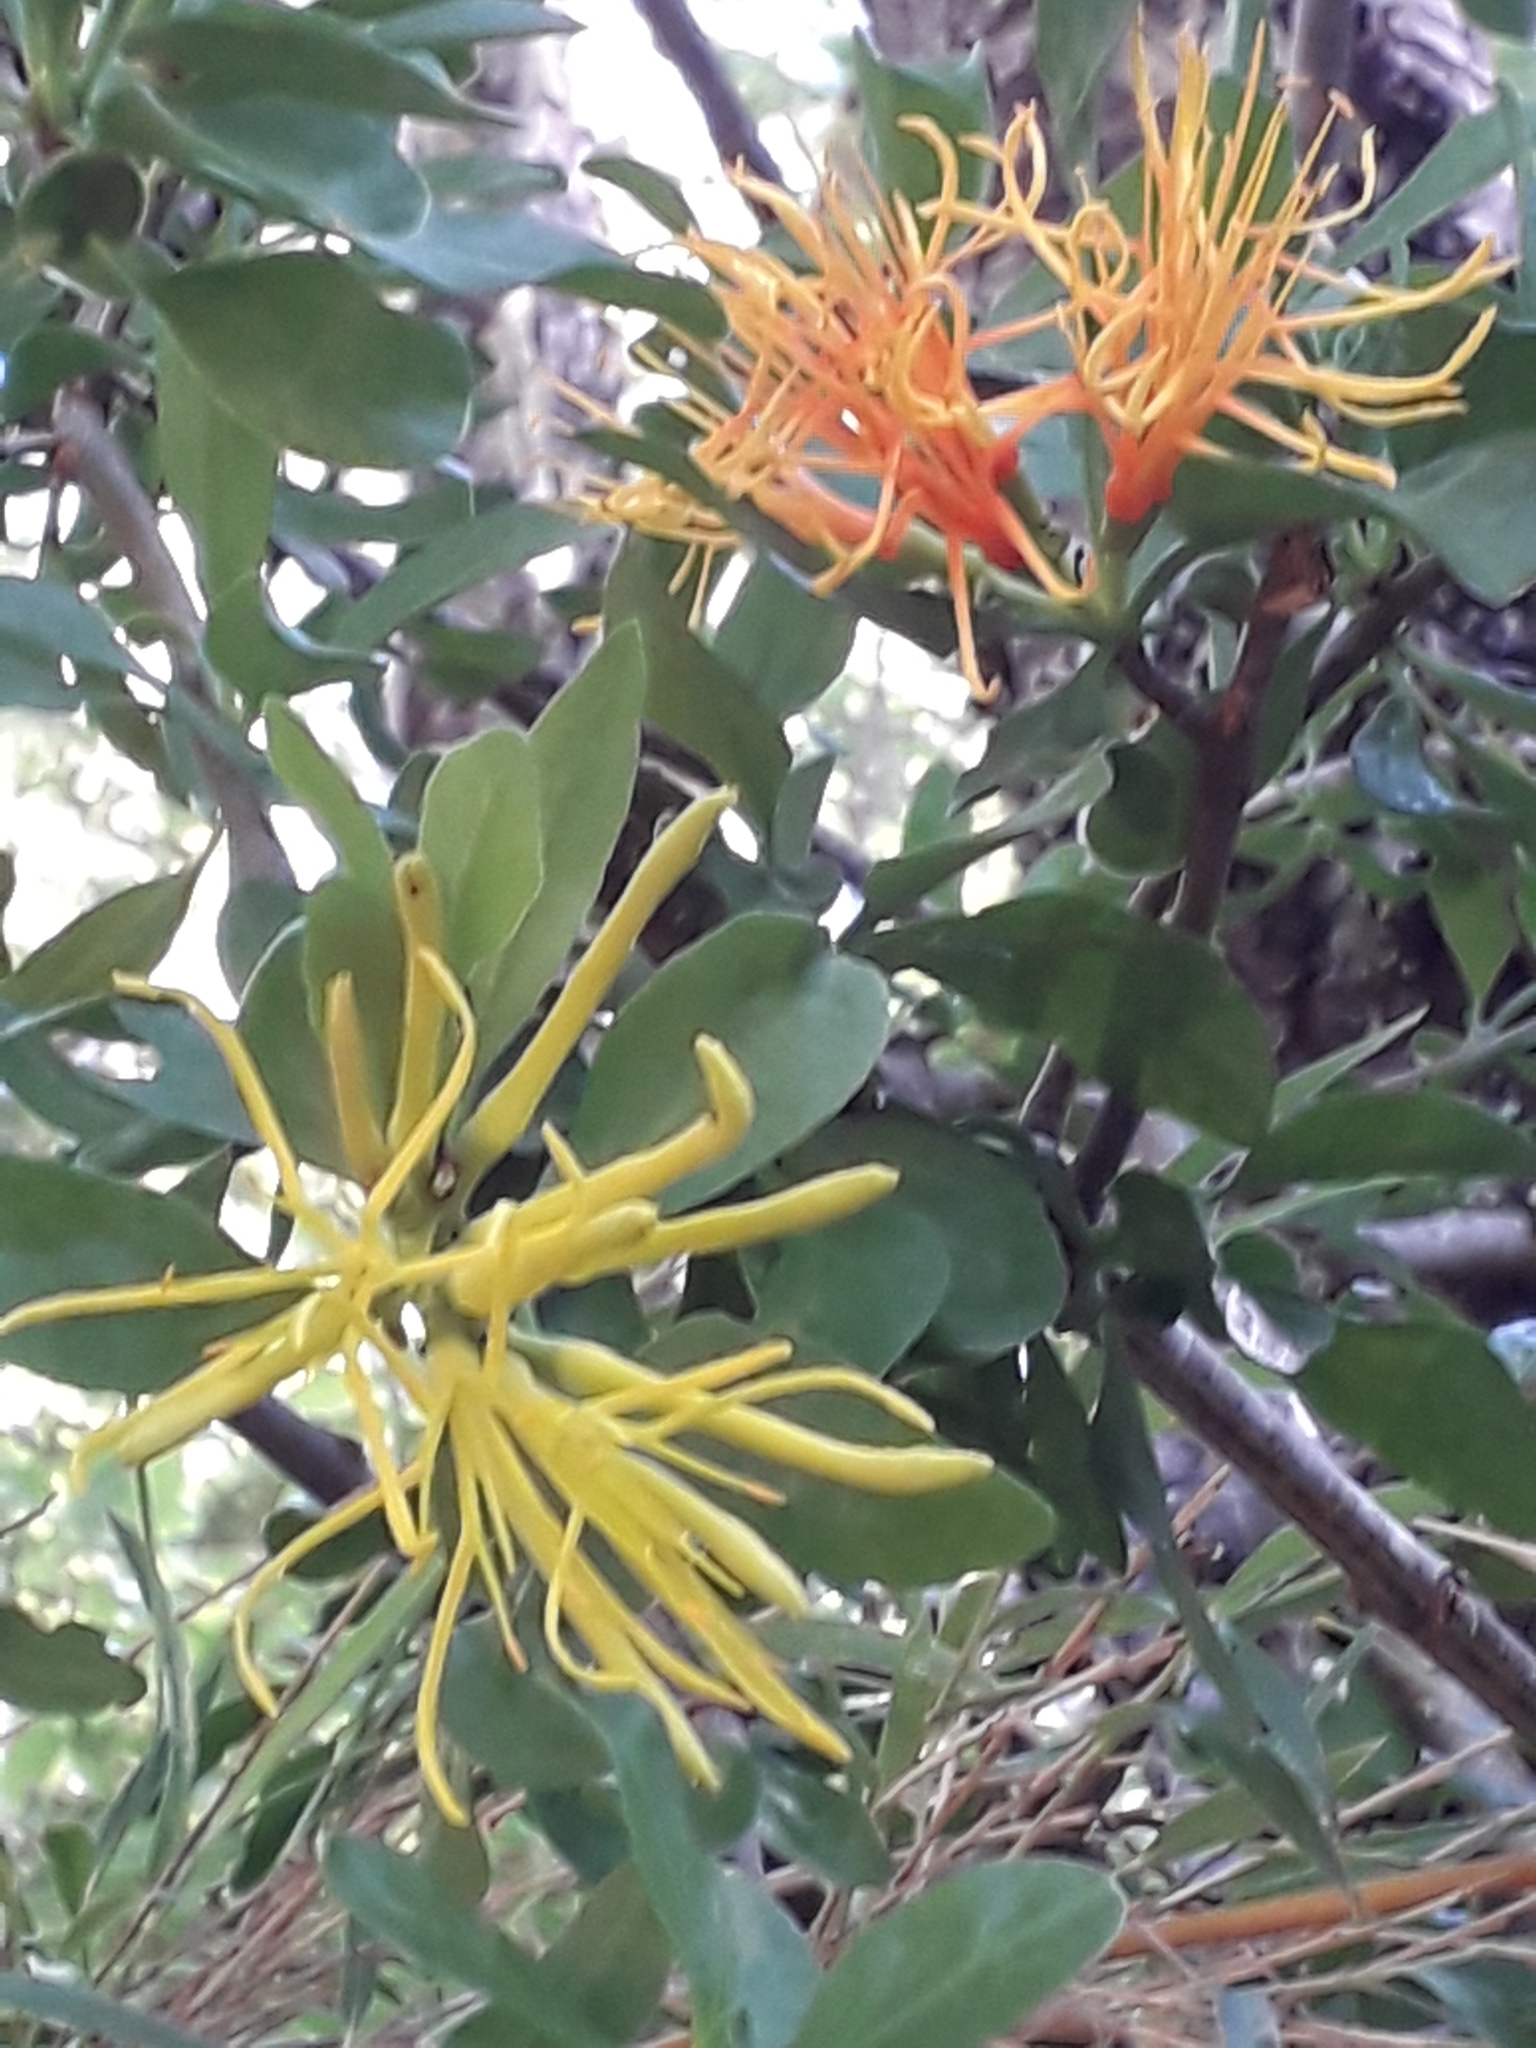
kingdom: Plantae
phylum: Tracheophyta
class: Magnoliopsida
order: Santalales
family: Loranthaceae
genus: Desmaria
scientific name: Desmaria mutabilis
